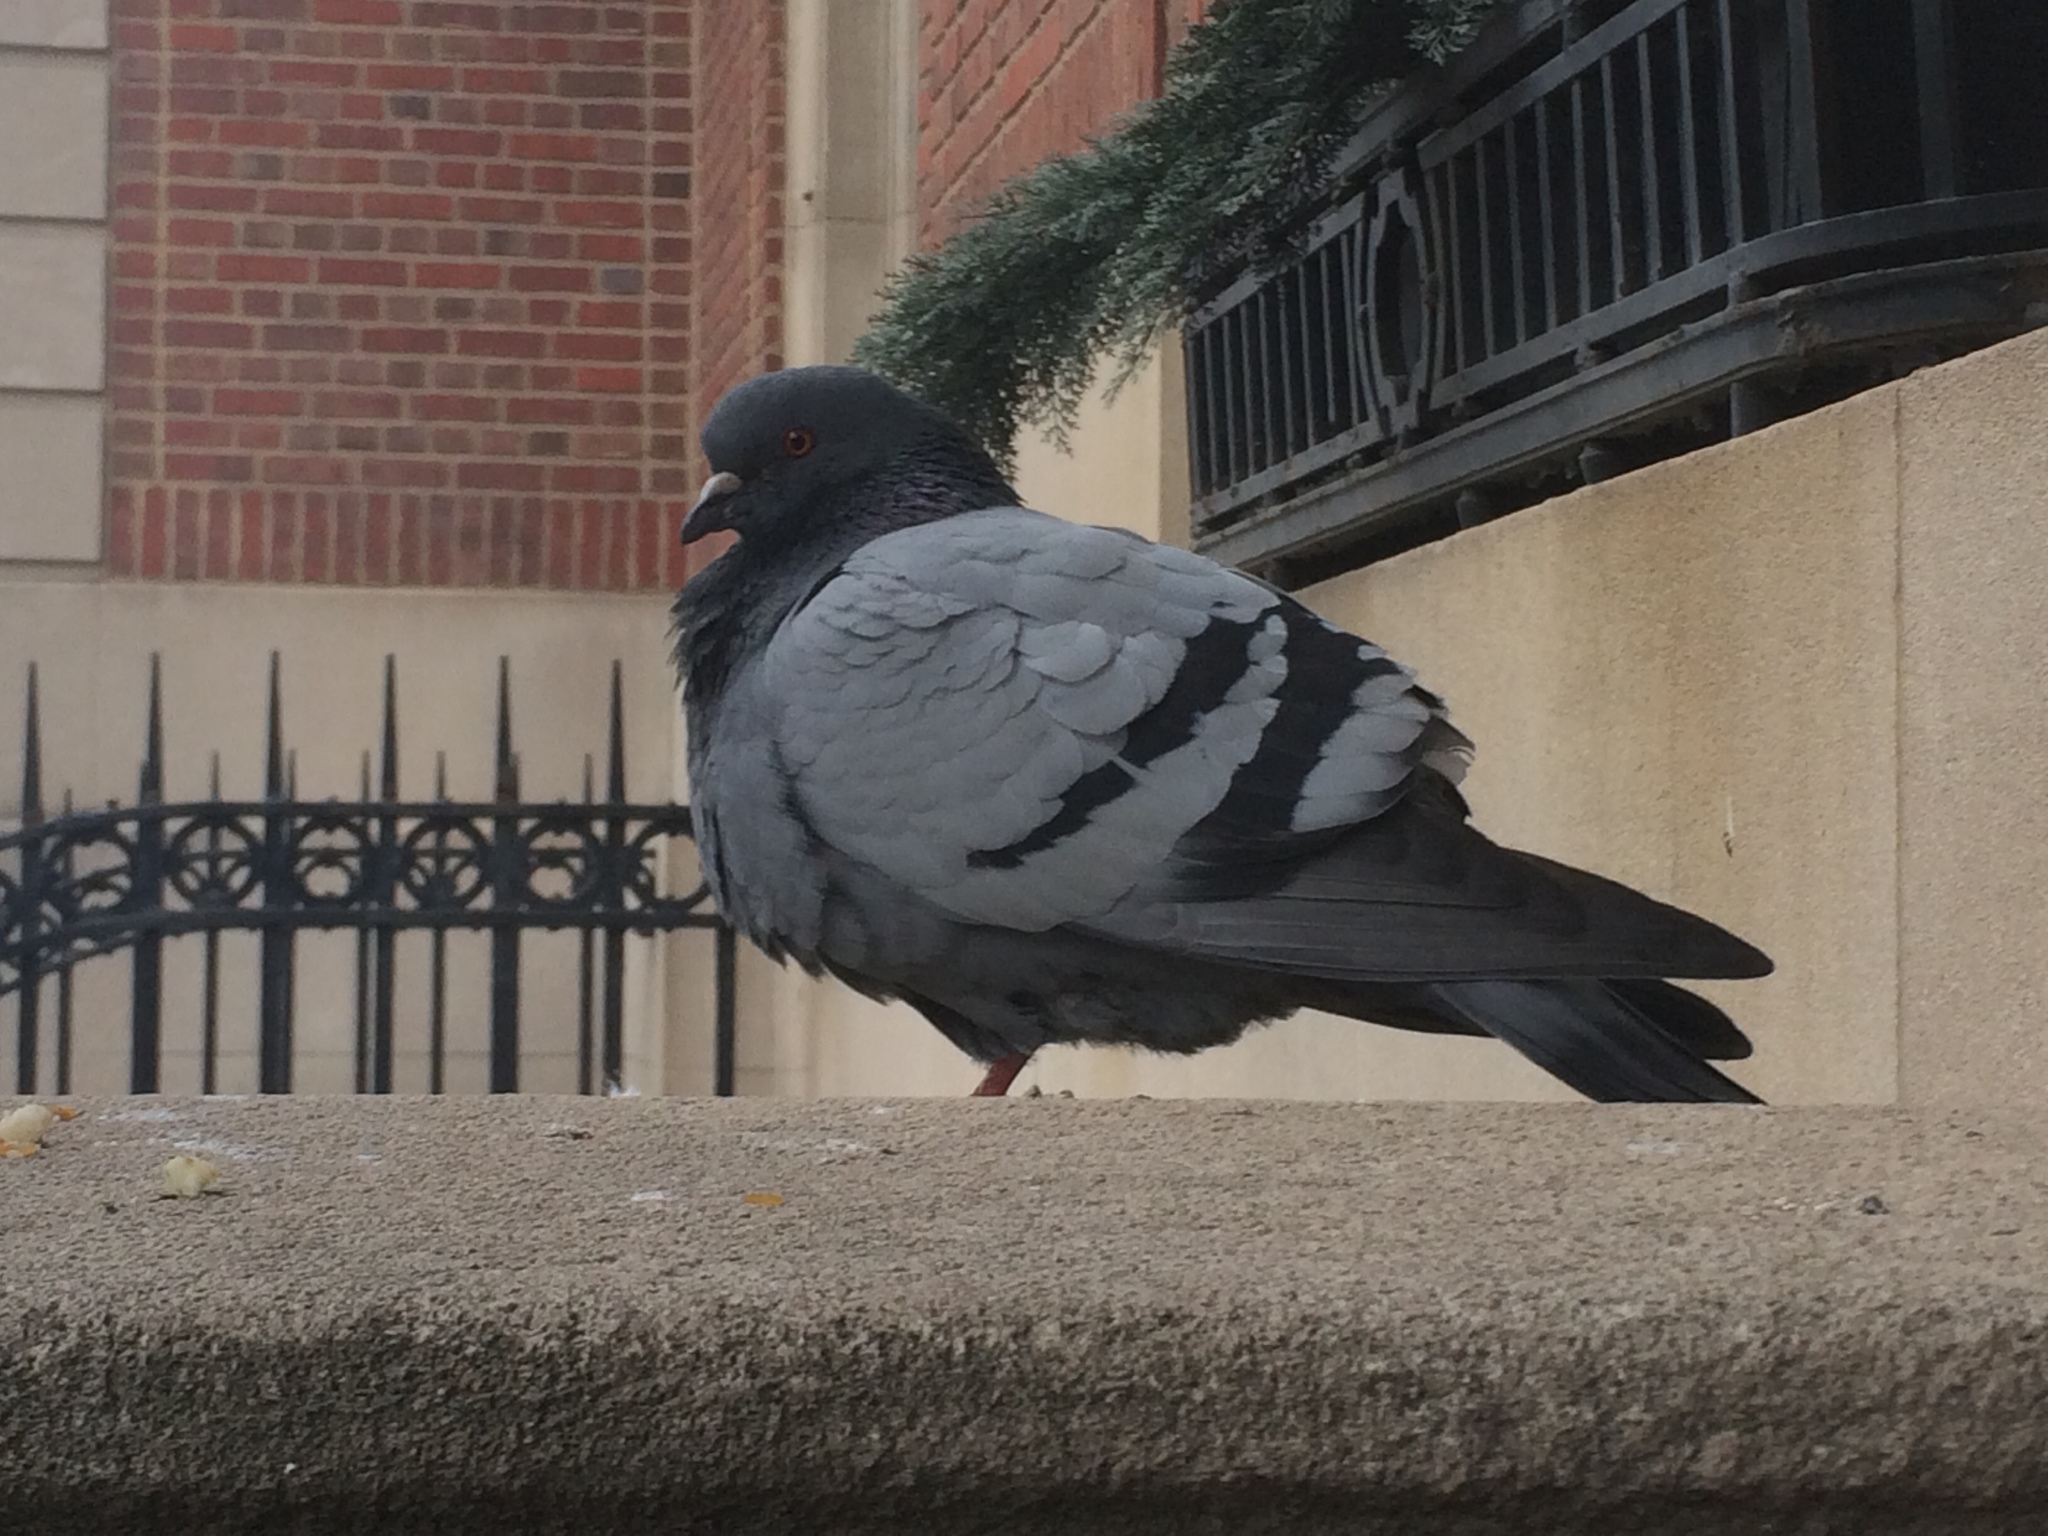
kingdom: Animalia
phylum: Chordata
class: Aves
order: Columbiformes
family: Columbidae
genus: Columba
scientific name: Columba livia
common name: Rock pigeon
